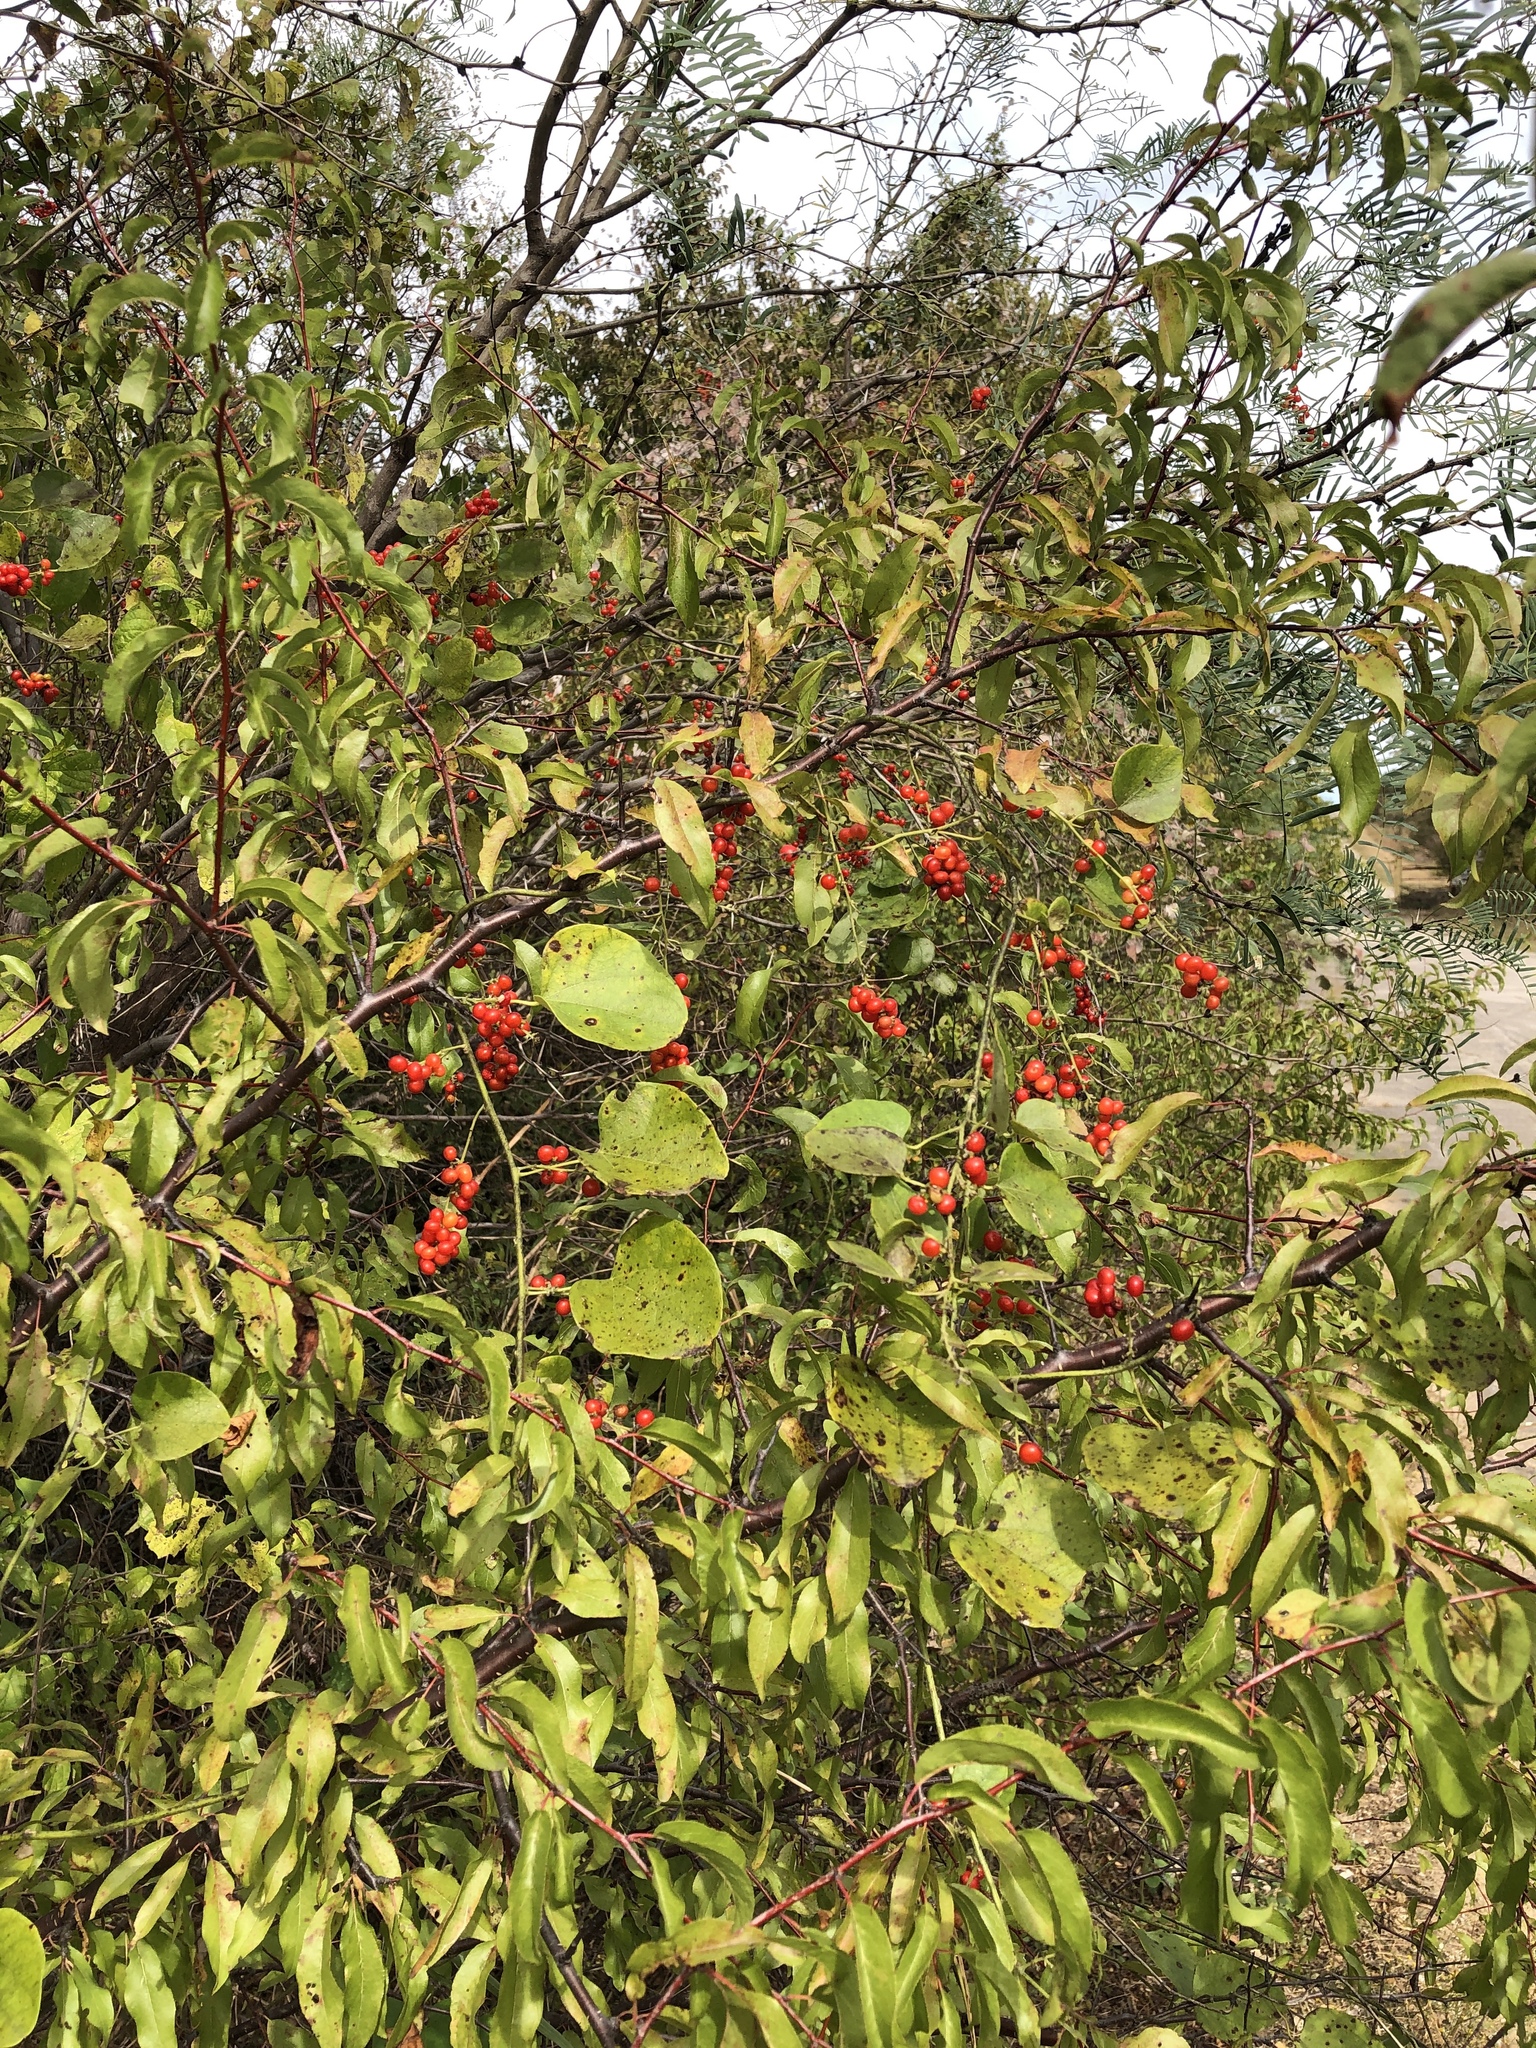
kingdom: Plantae
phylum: Tracheophyta
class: Magnoliopsida
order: Ranunculales
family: Menispermaceae
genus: Cocculus
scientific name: Cocculus carolinus
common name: Carolina moonseed
